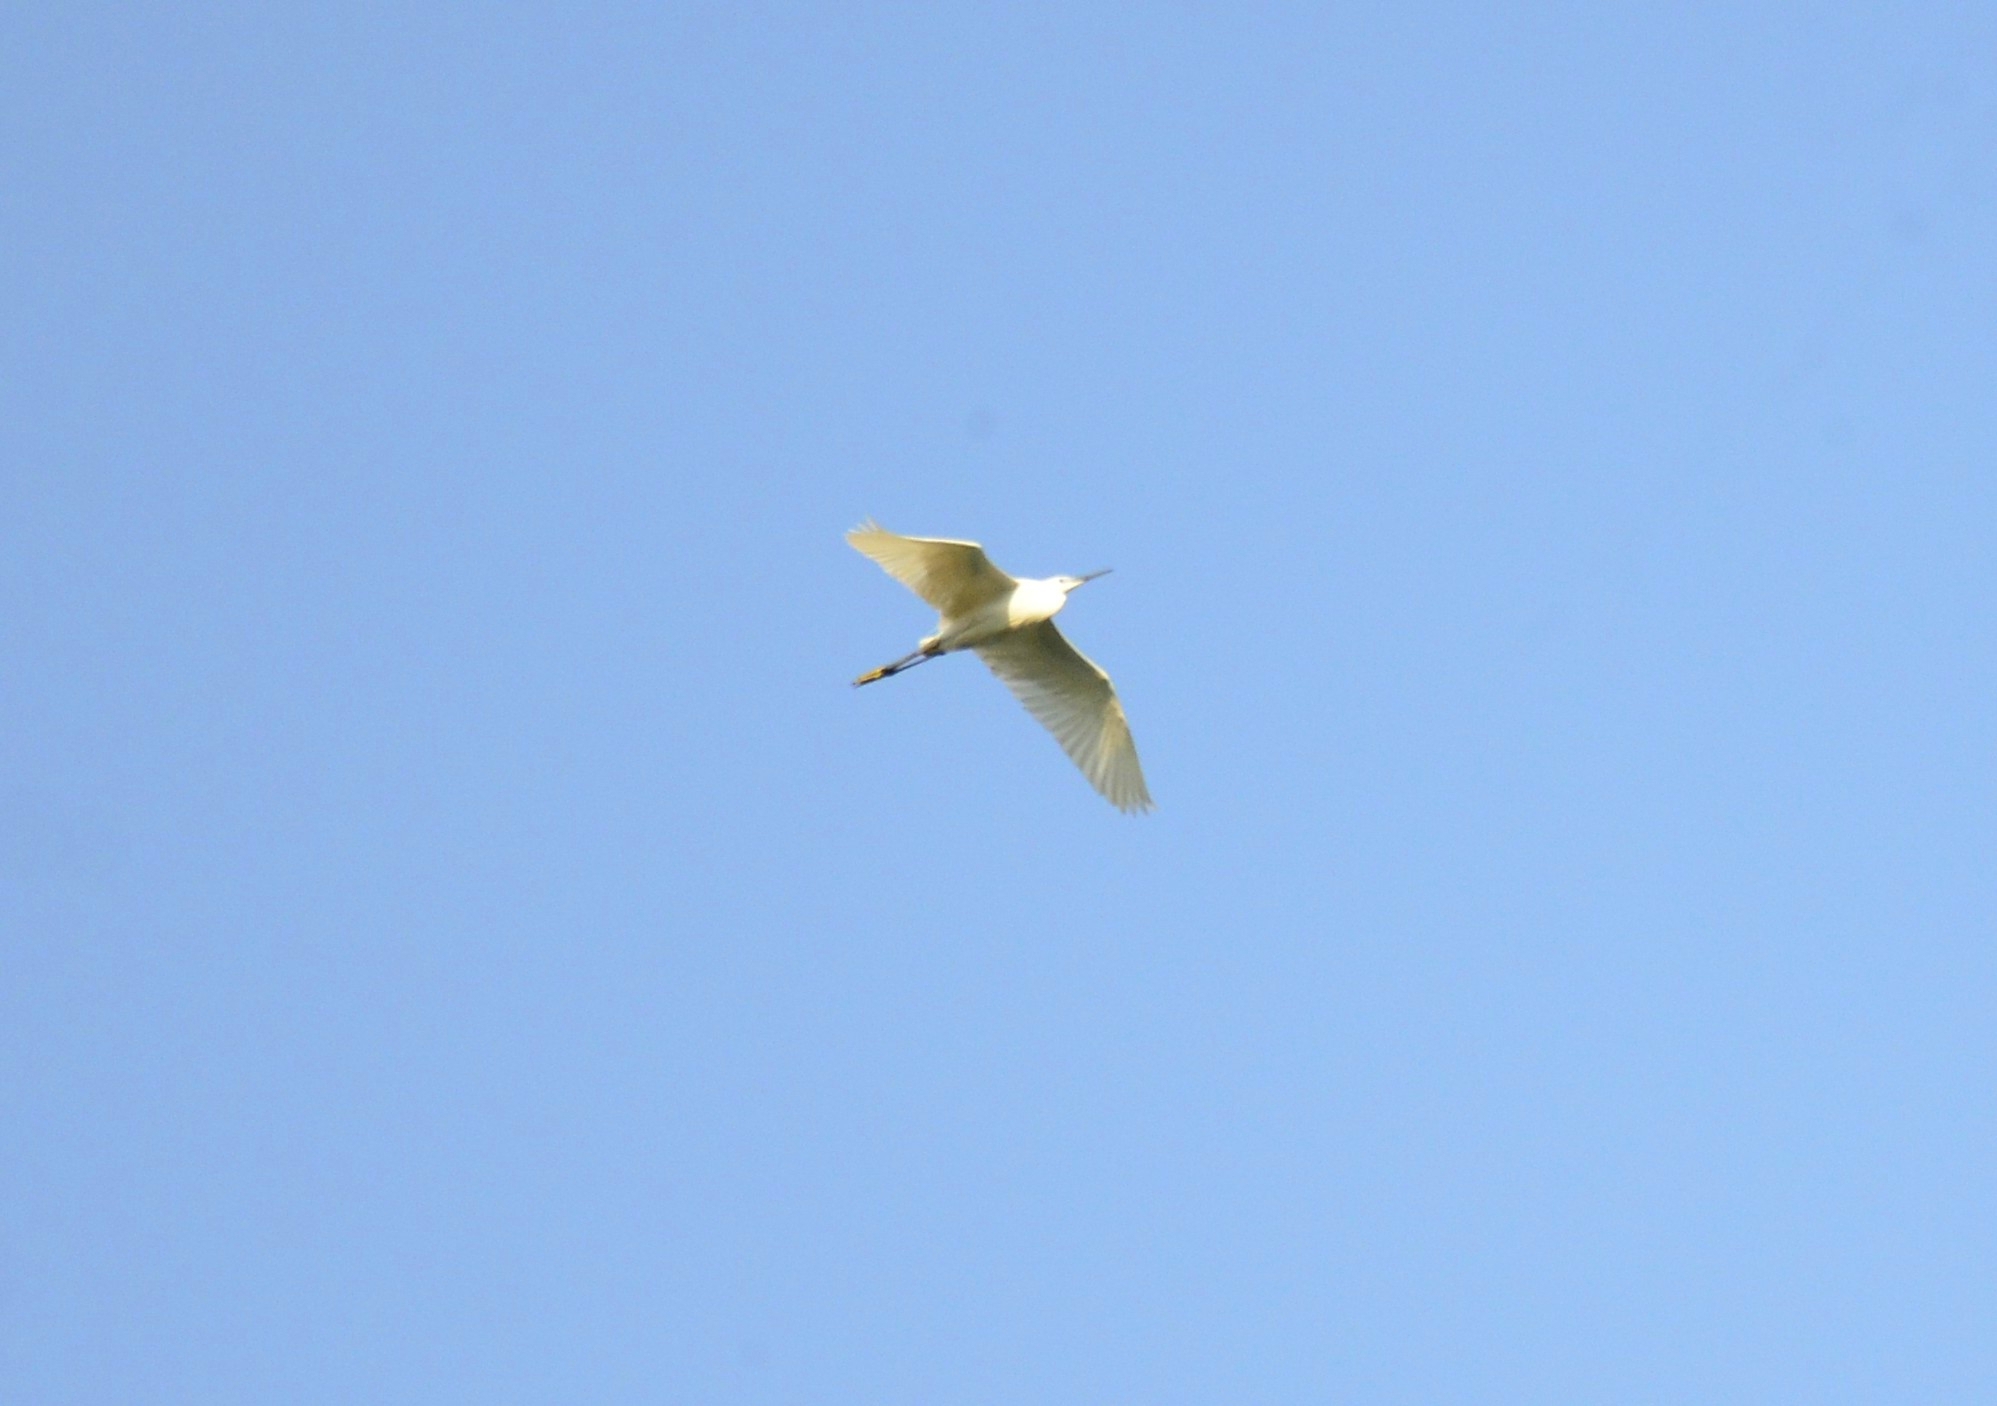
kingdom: Animalia
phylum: Chordata
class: Aves
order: Pelecaniformes
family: Ardeidae
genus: Egretta
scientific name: Egretta garzetta
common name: Little egret
